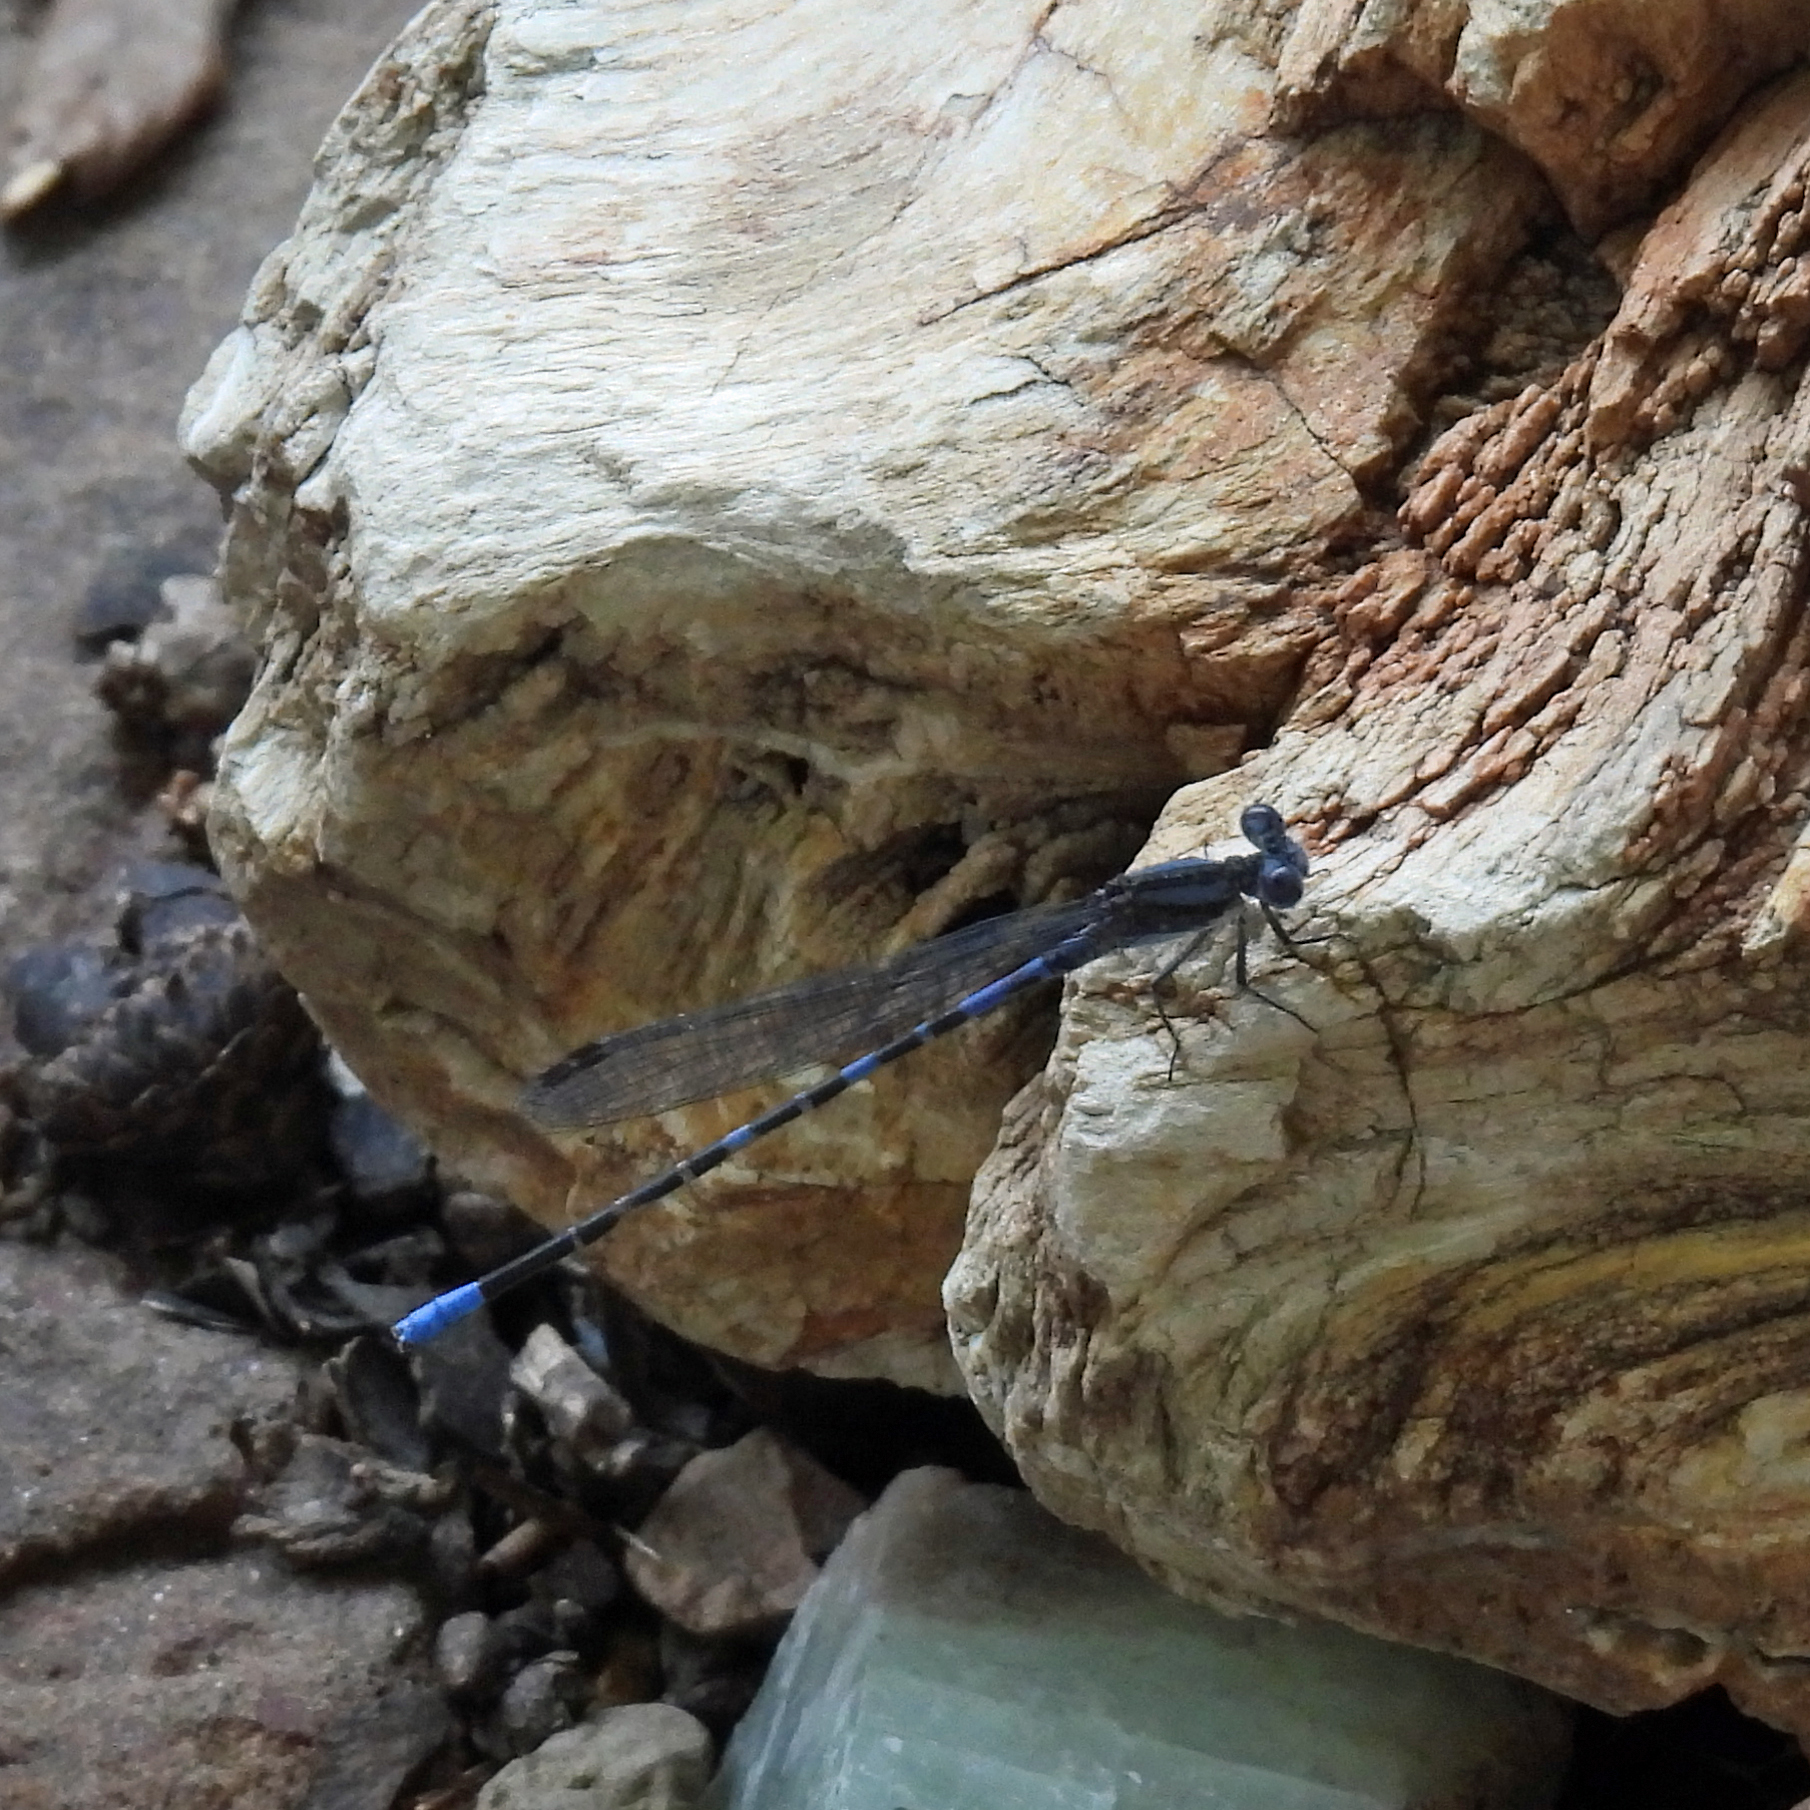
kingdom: Animalia
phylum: Arthropoda
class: Insecta
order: Odonata
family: Coenagrionidae
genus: Argia
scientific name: Argia immunda
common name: Kiowa dancer
